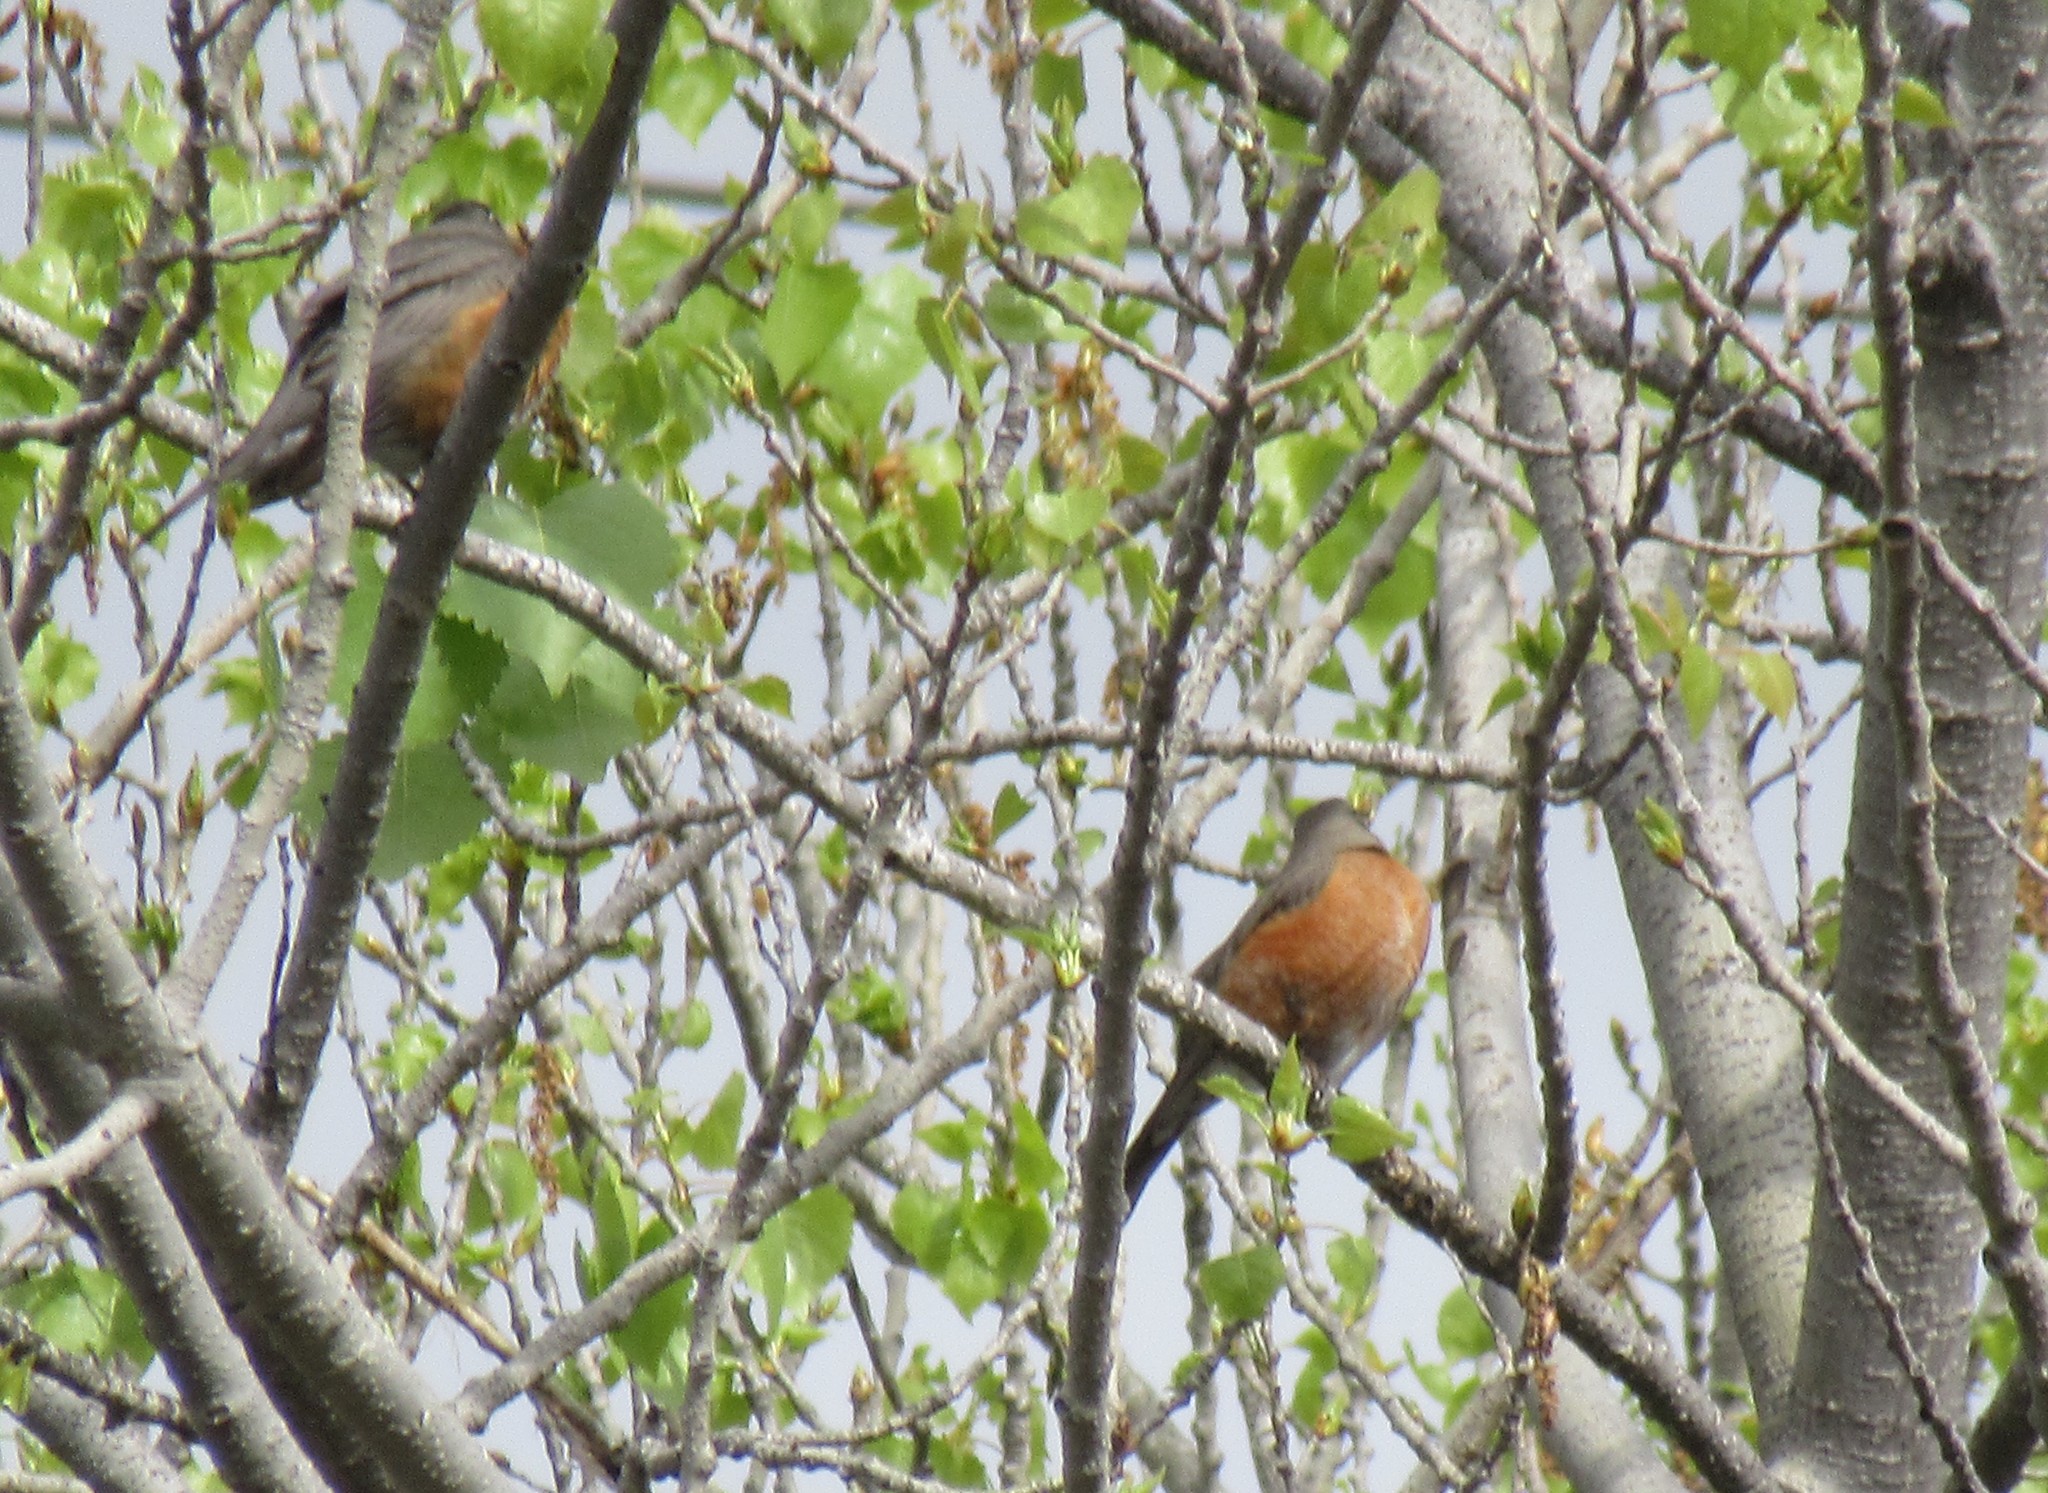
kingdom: Animalia
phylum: Chordata
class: Aves
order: Passeriformes
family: Turdidae
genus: Turdus
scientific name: Turdus migratorius
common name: American robin
